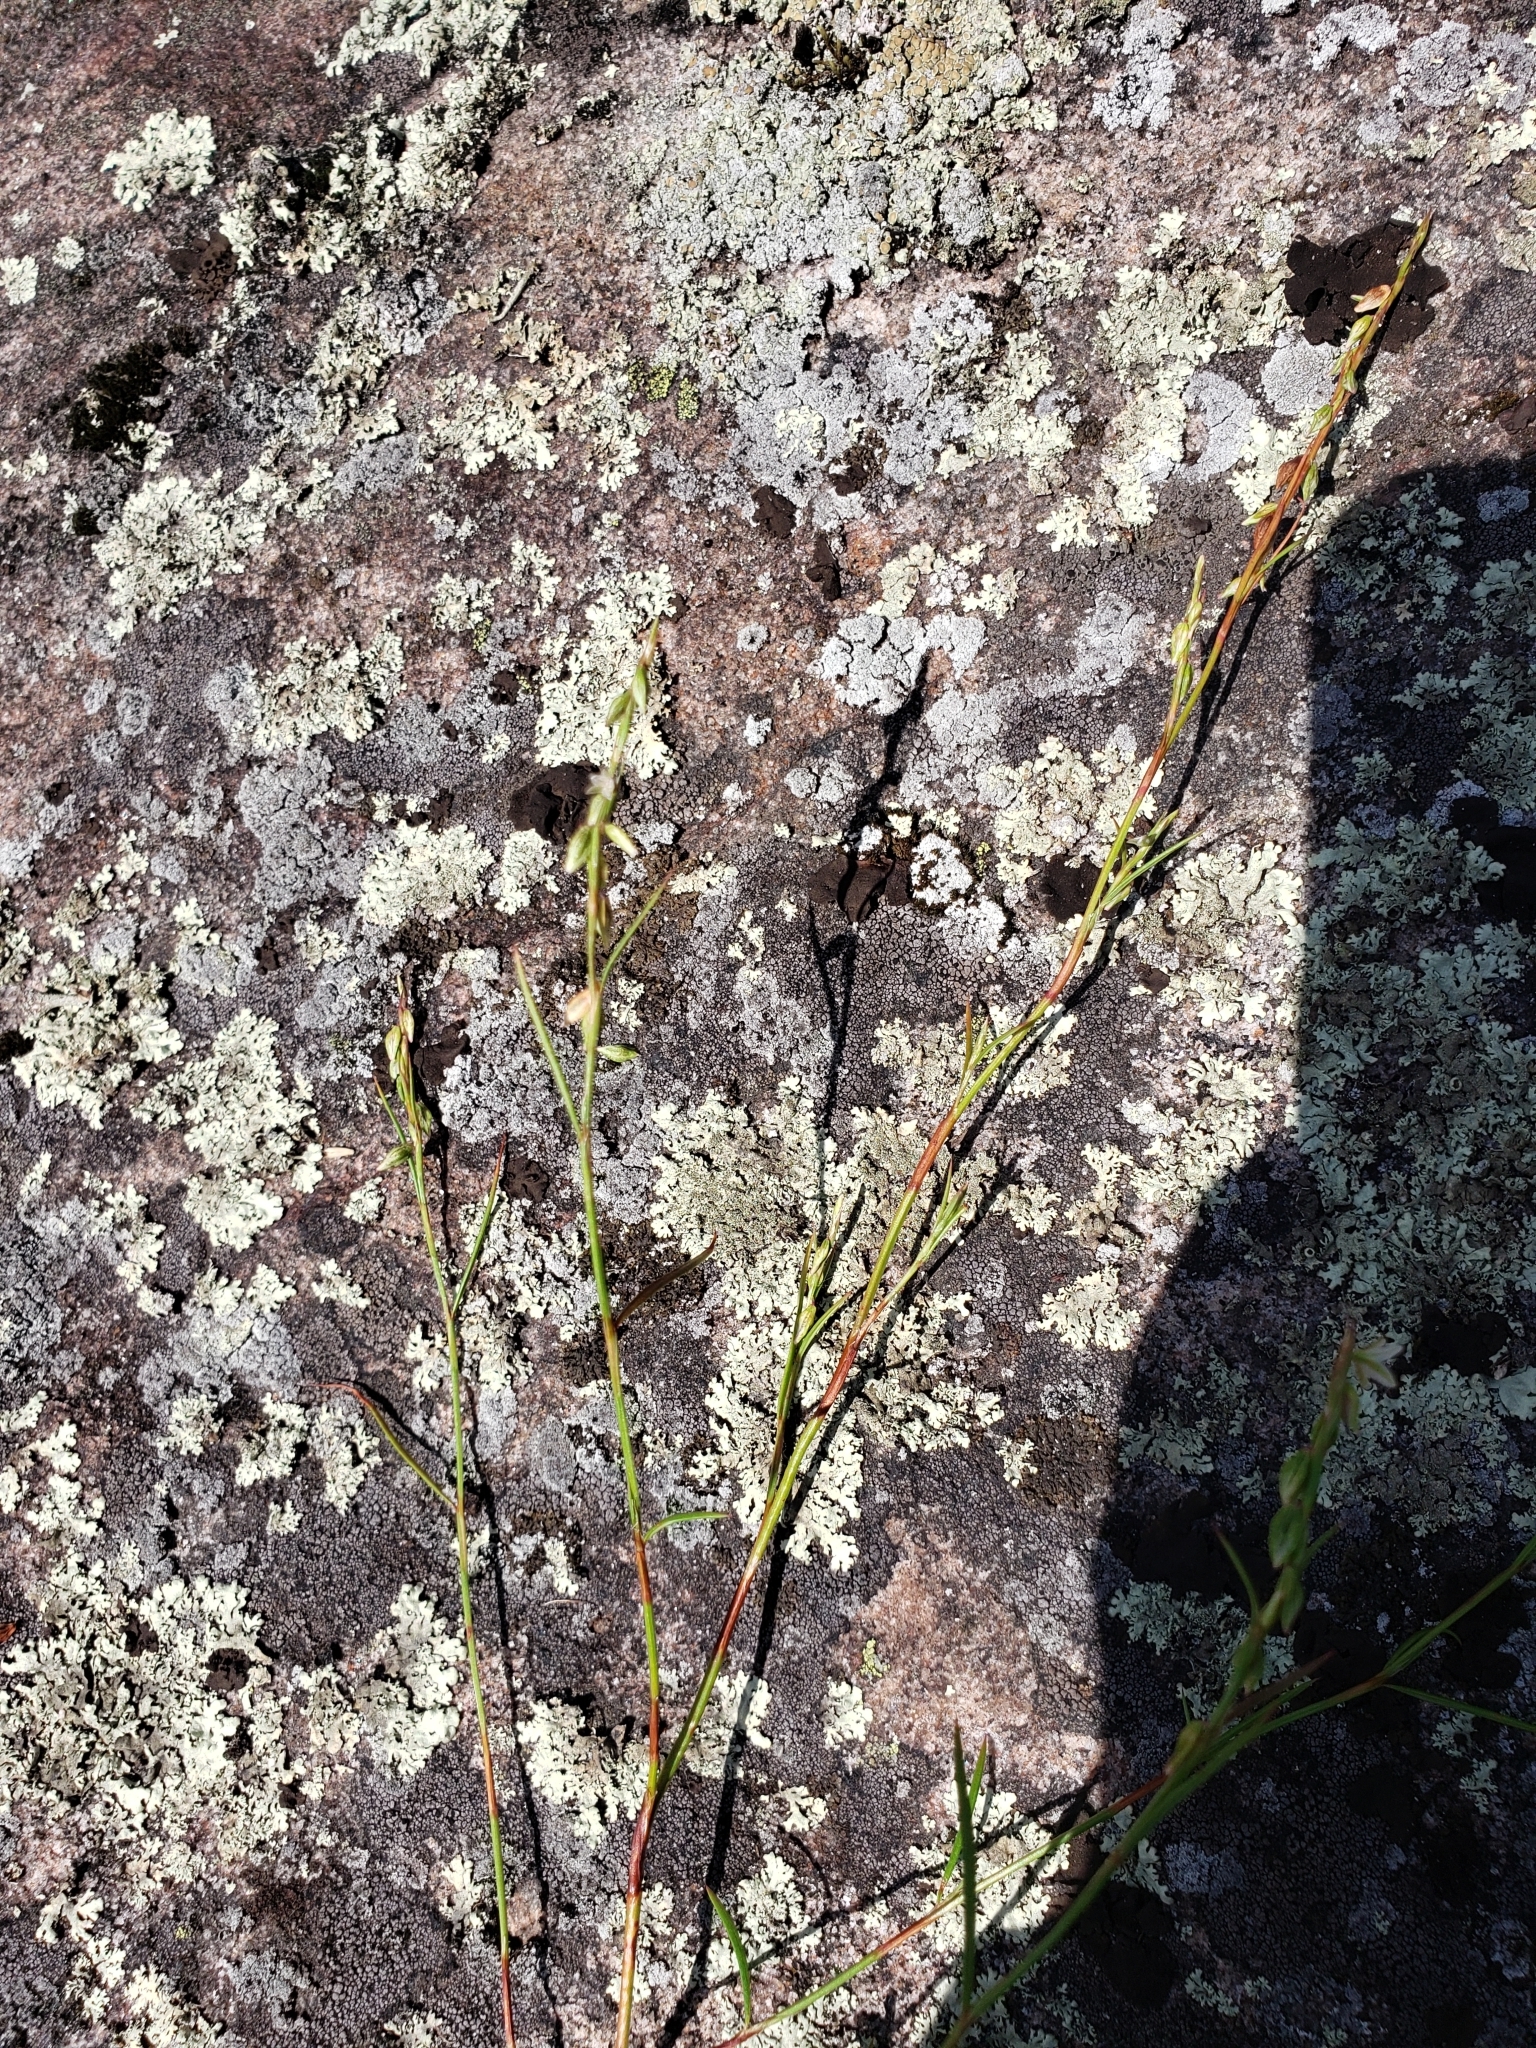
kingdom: Plantae
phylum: Tracheophyta
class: Magnoliopsida
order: Caryophyllales
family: Polygonaceae
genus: Polygonum
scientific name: Polygonum douglasii
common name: Douglas' knotweed
